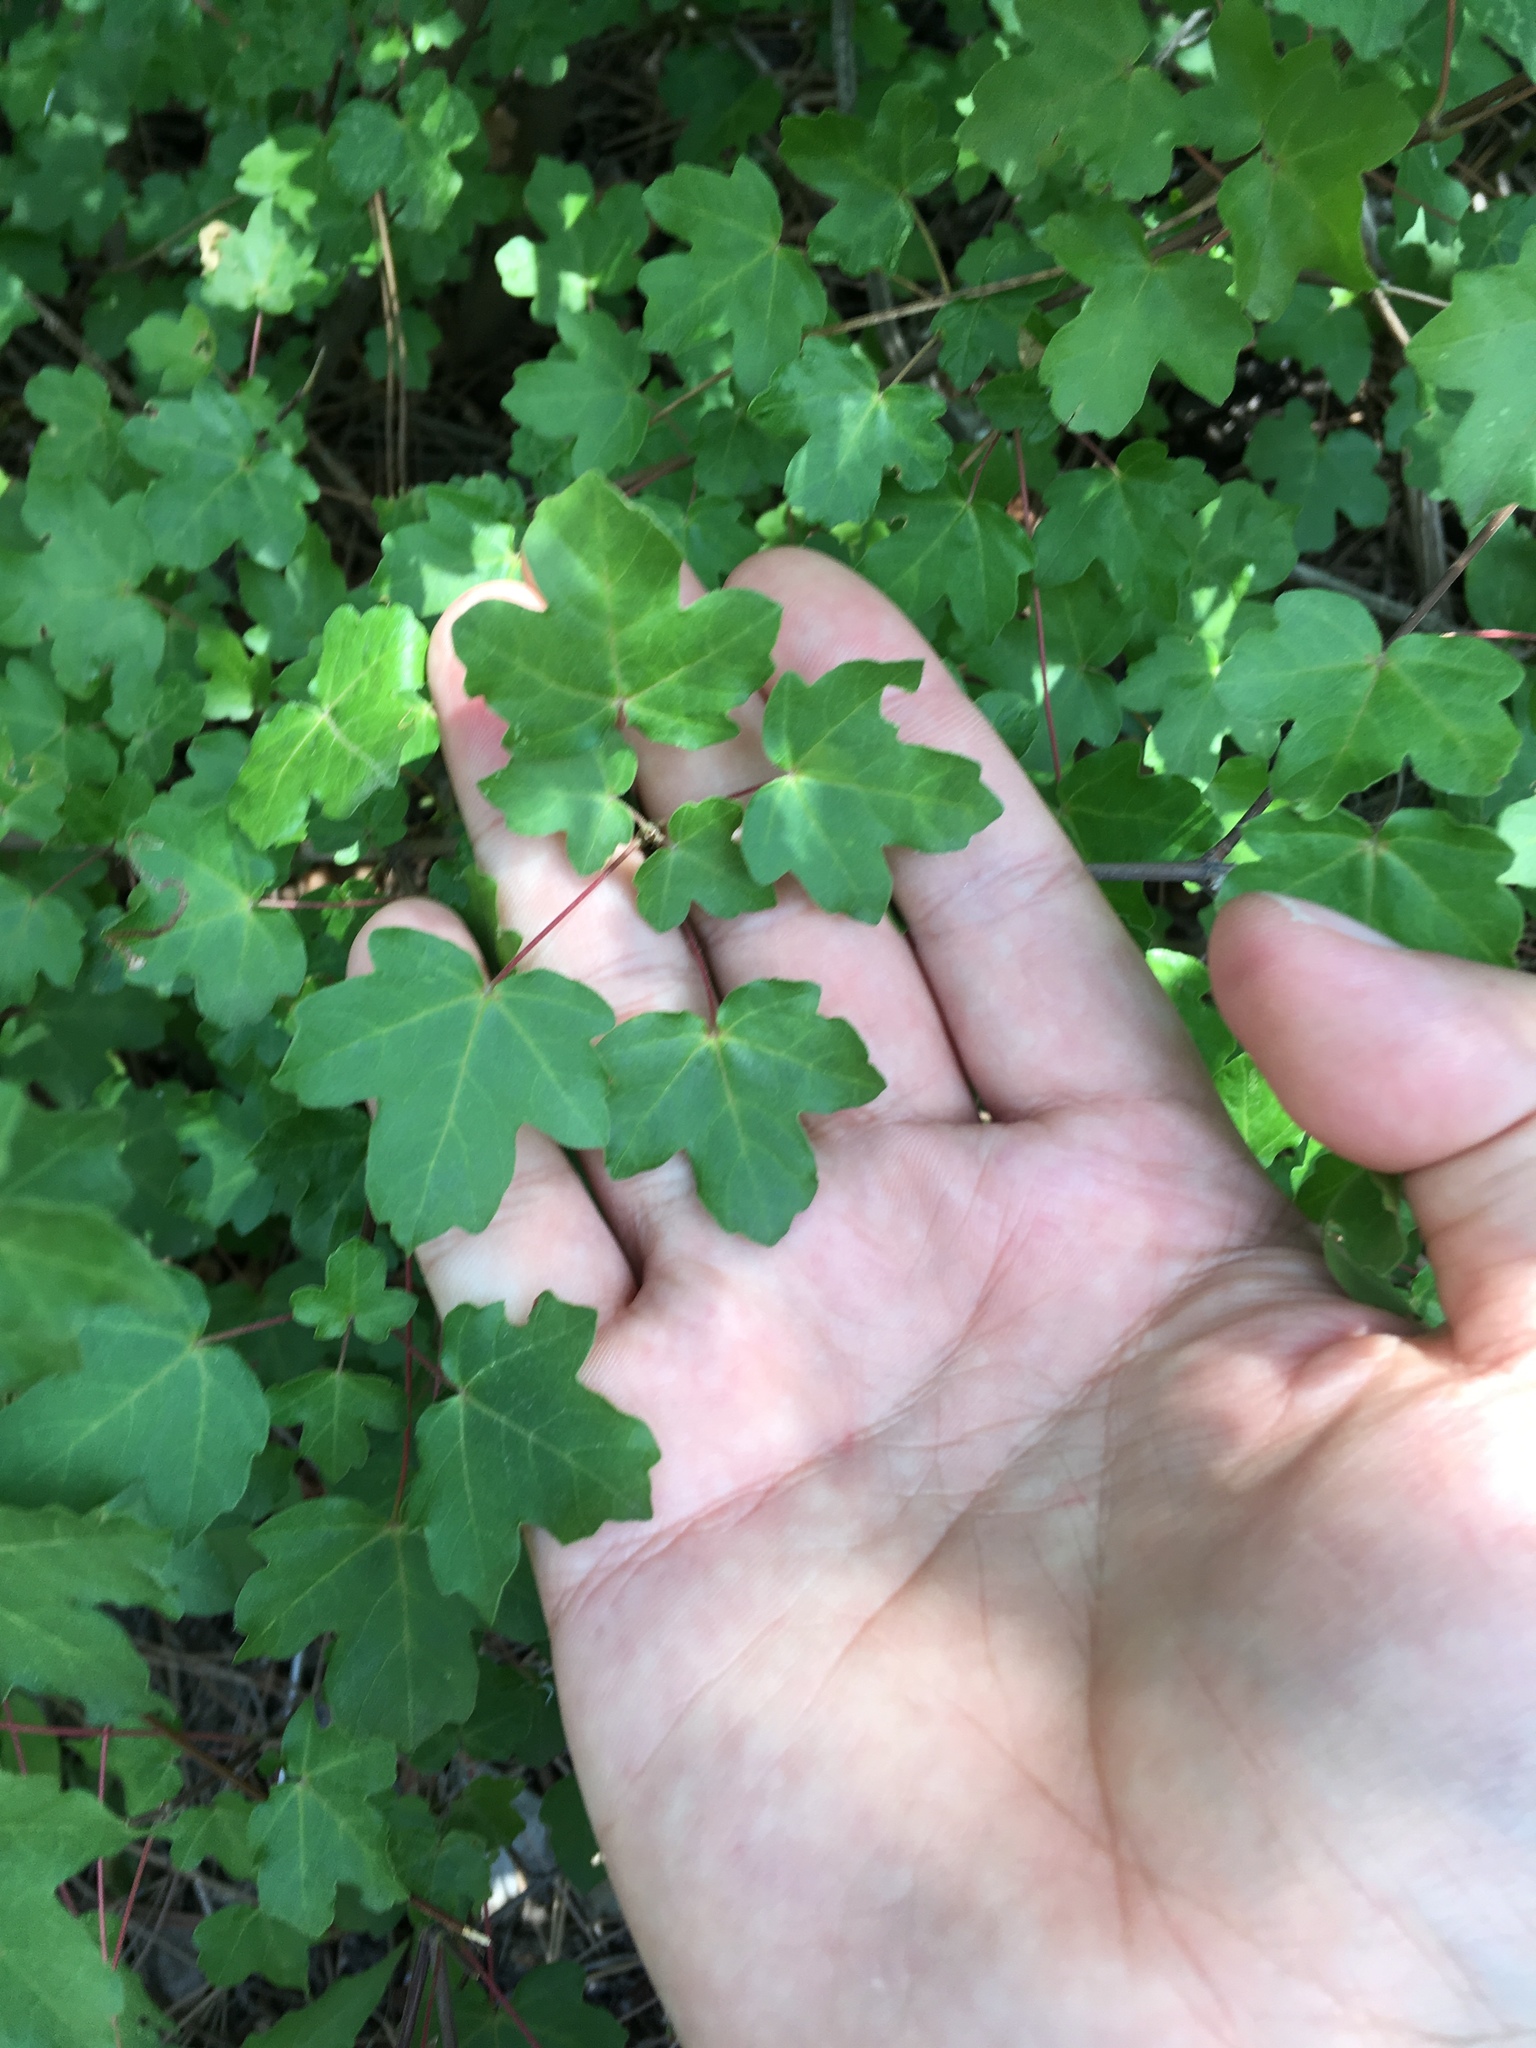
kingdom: Plantae
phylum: Tracheophyta
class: Magnoliopsida
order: Sapindales
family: Sapindaceae
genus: Acer
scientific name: Acer campestre
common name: Field maple
